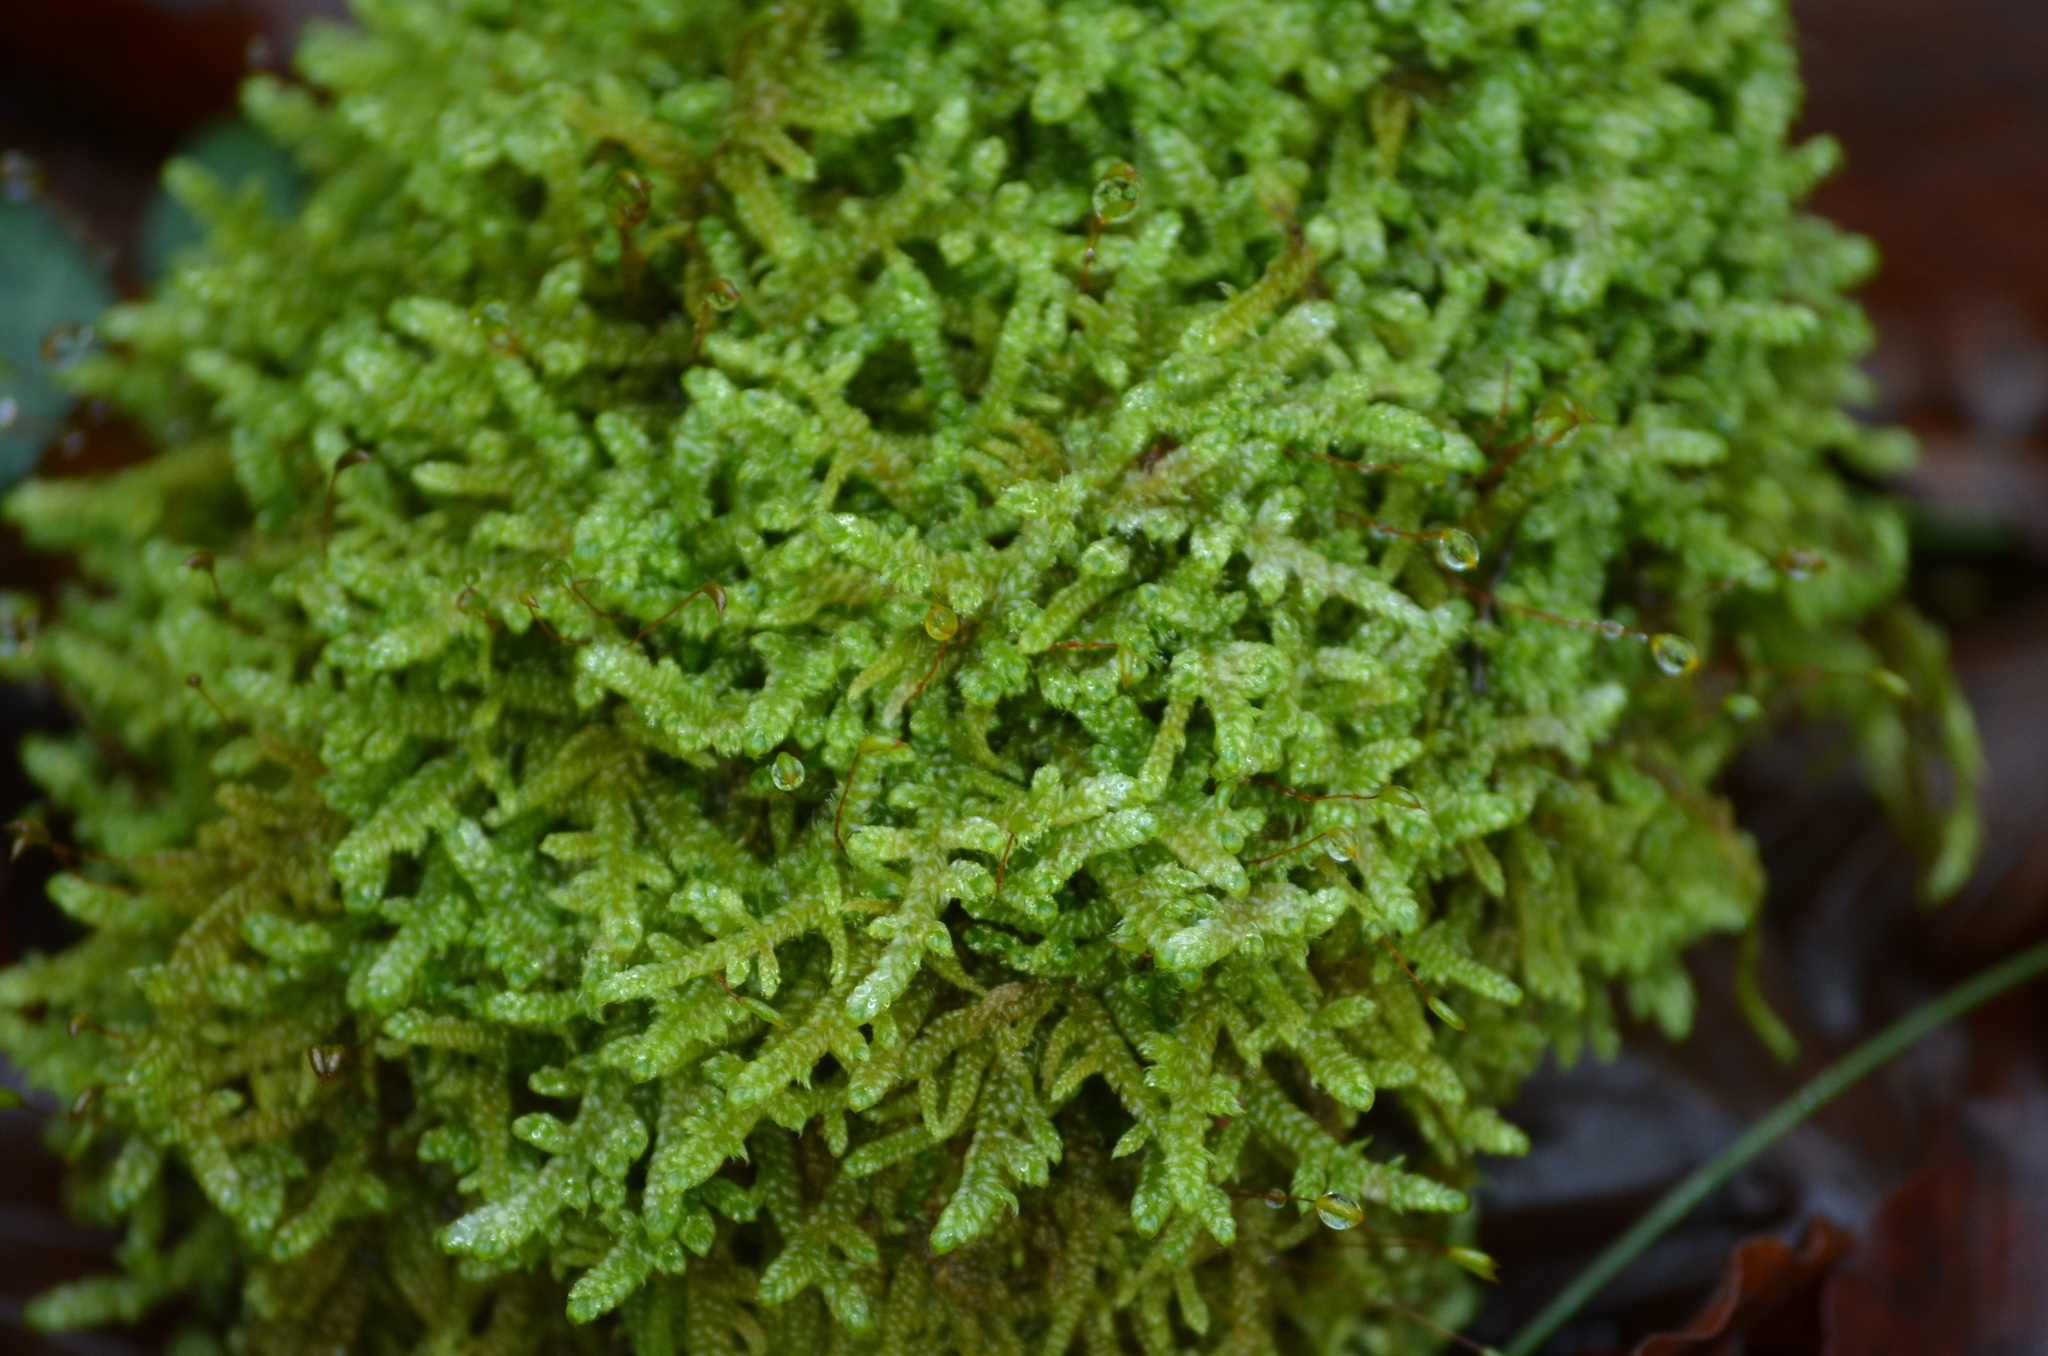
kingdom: Plantae
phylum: Bryophyta
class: Bryopsida
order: Hypnales
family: Hypnaceae
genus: Hypnum
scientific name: Hypnum cupressiforme
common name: Cypress-leaved plait-moss
